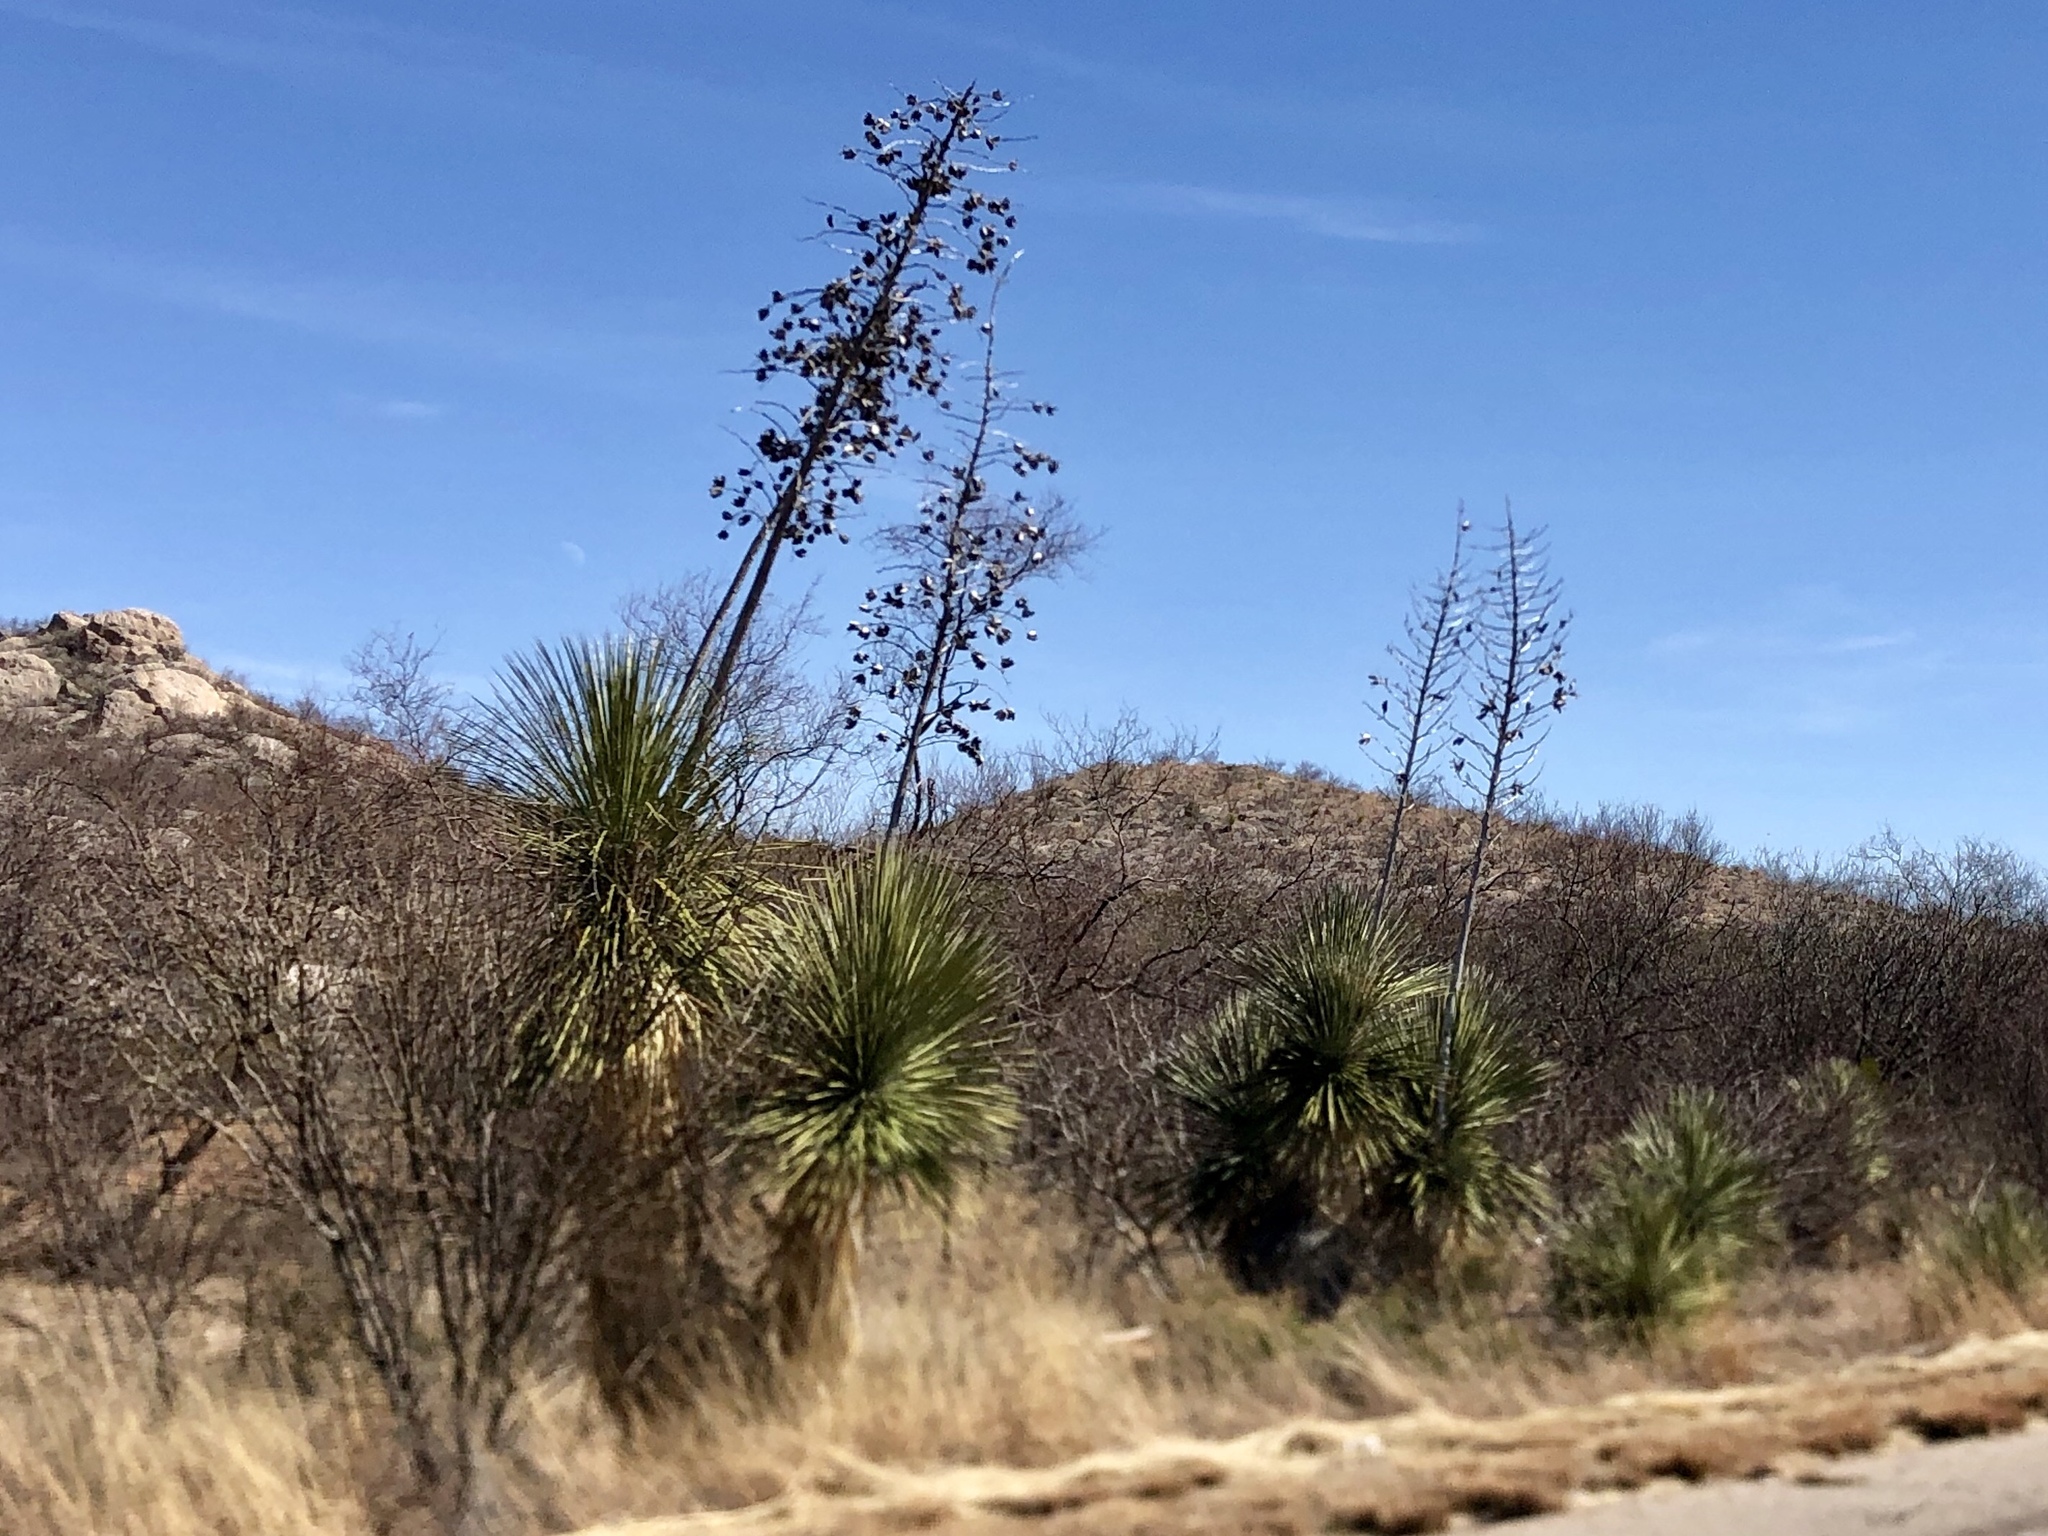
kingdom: Plantae
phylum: Tracheophyta
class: Liliopsida
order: Asparagales
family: Asparagaceae
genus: Yucca
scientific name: Yucca elata
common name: Palmella
